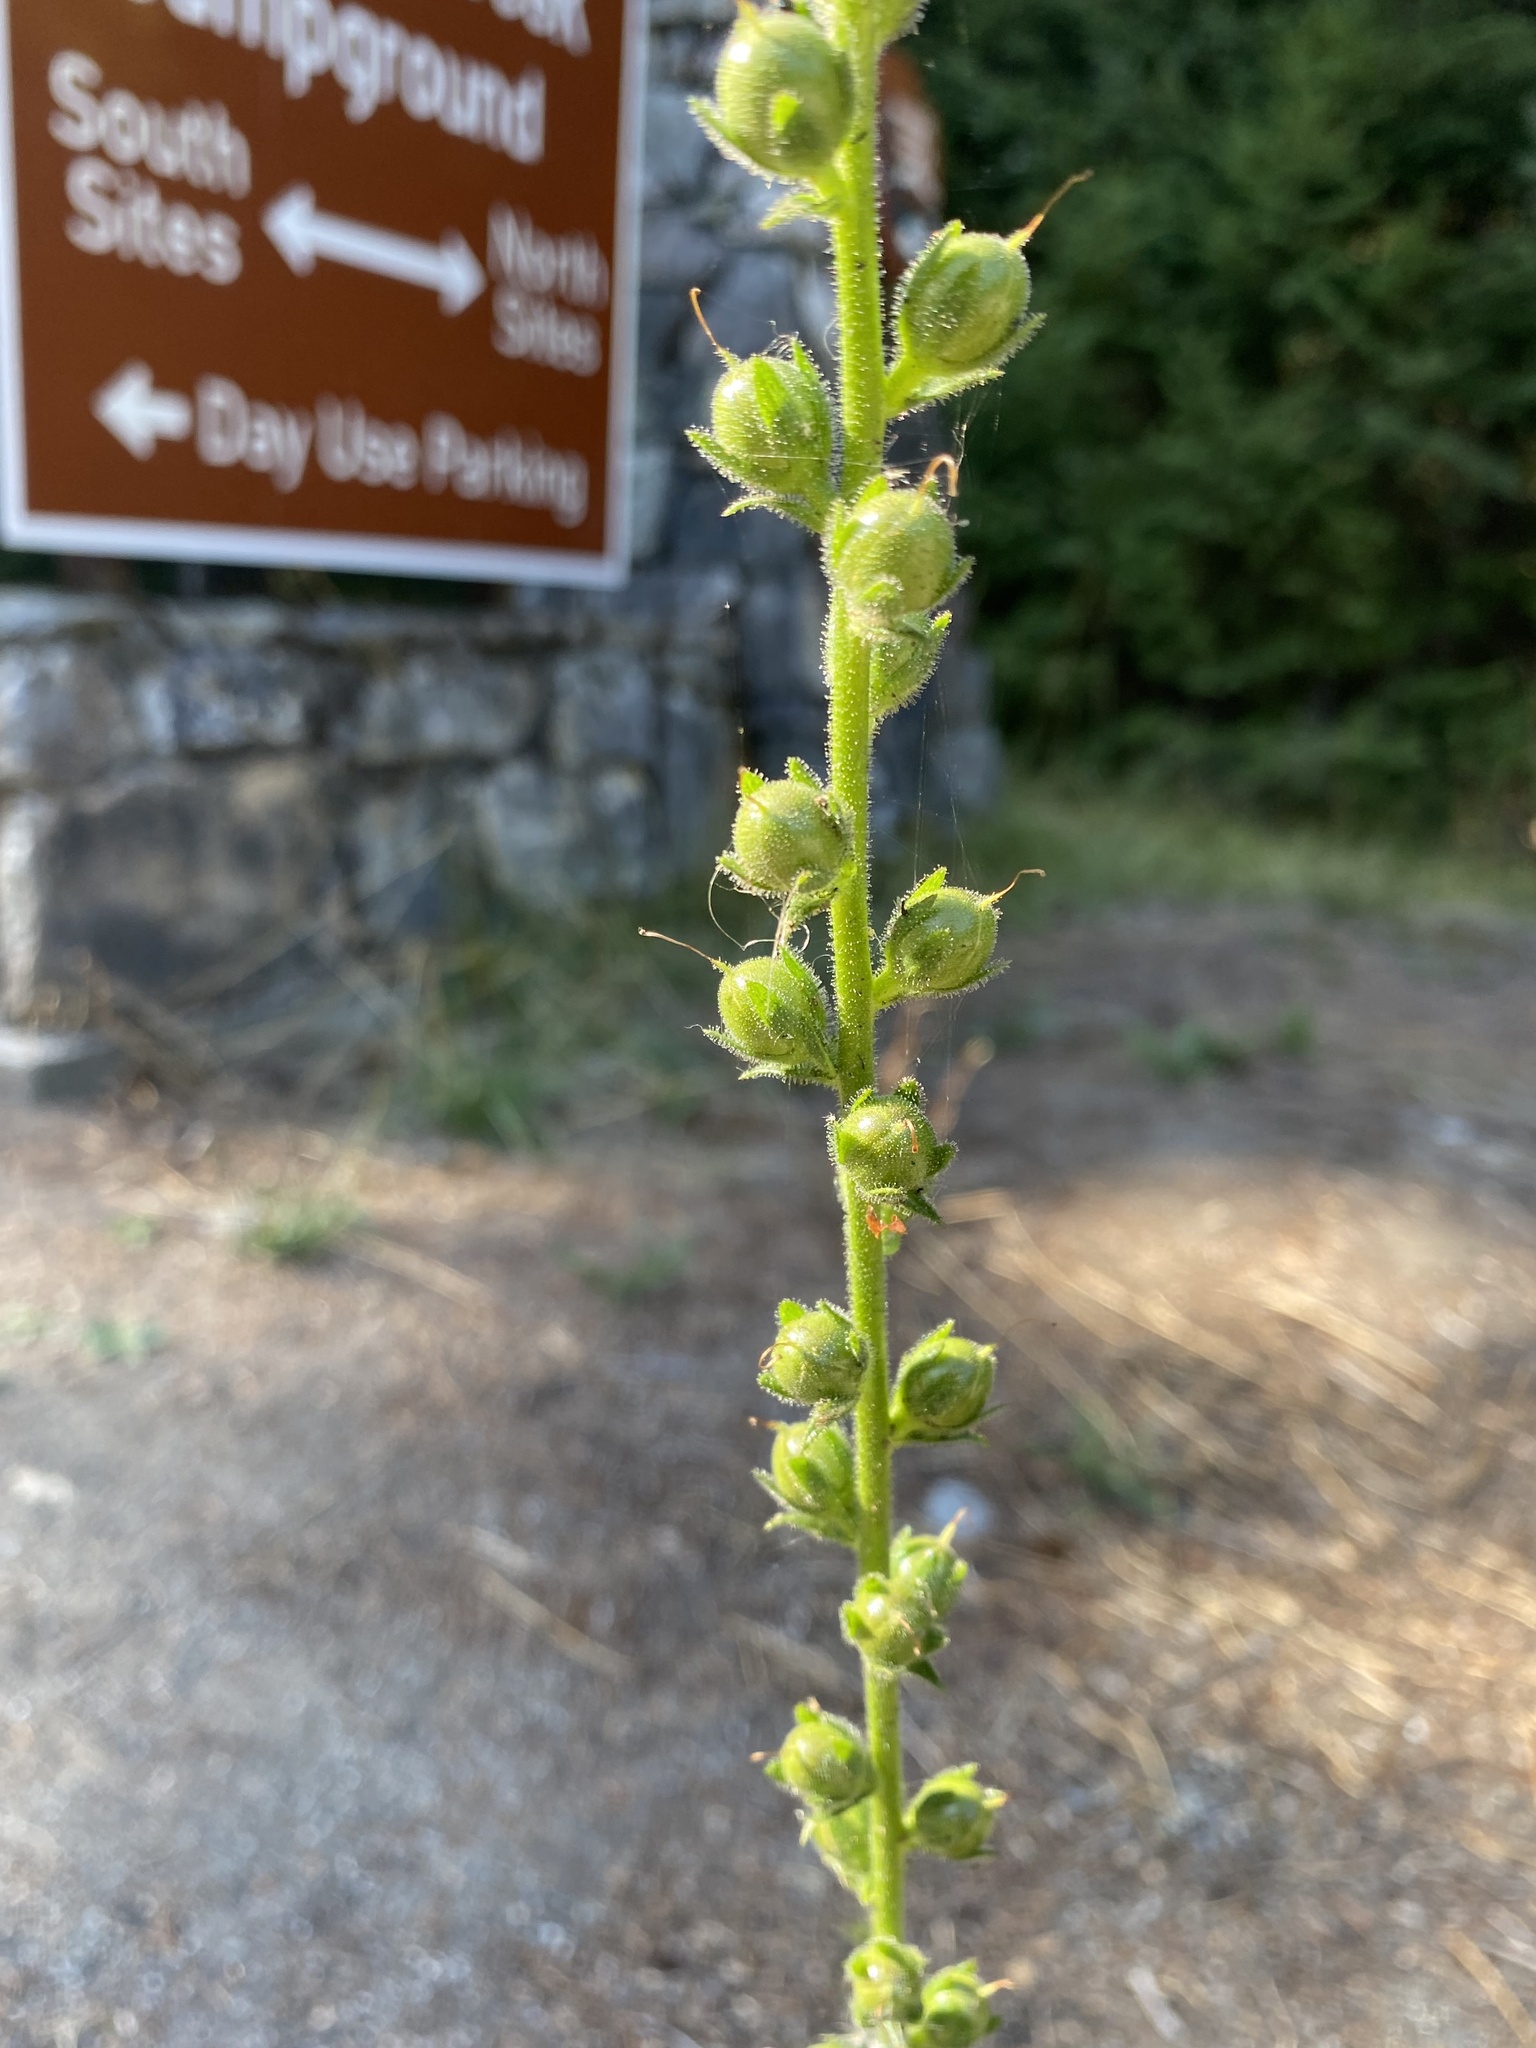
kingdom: Plantae
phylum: Tracheophyta
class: Magnoliopsida
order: Lamiales
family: Scrophulariaceae
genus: Verbascum
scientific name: Verbascum virgatum
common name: Twiggy mullein
